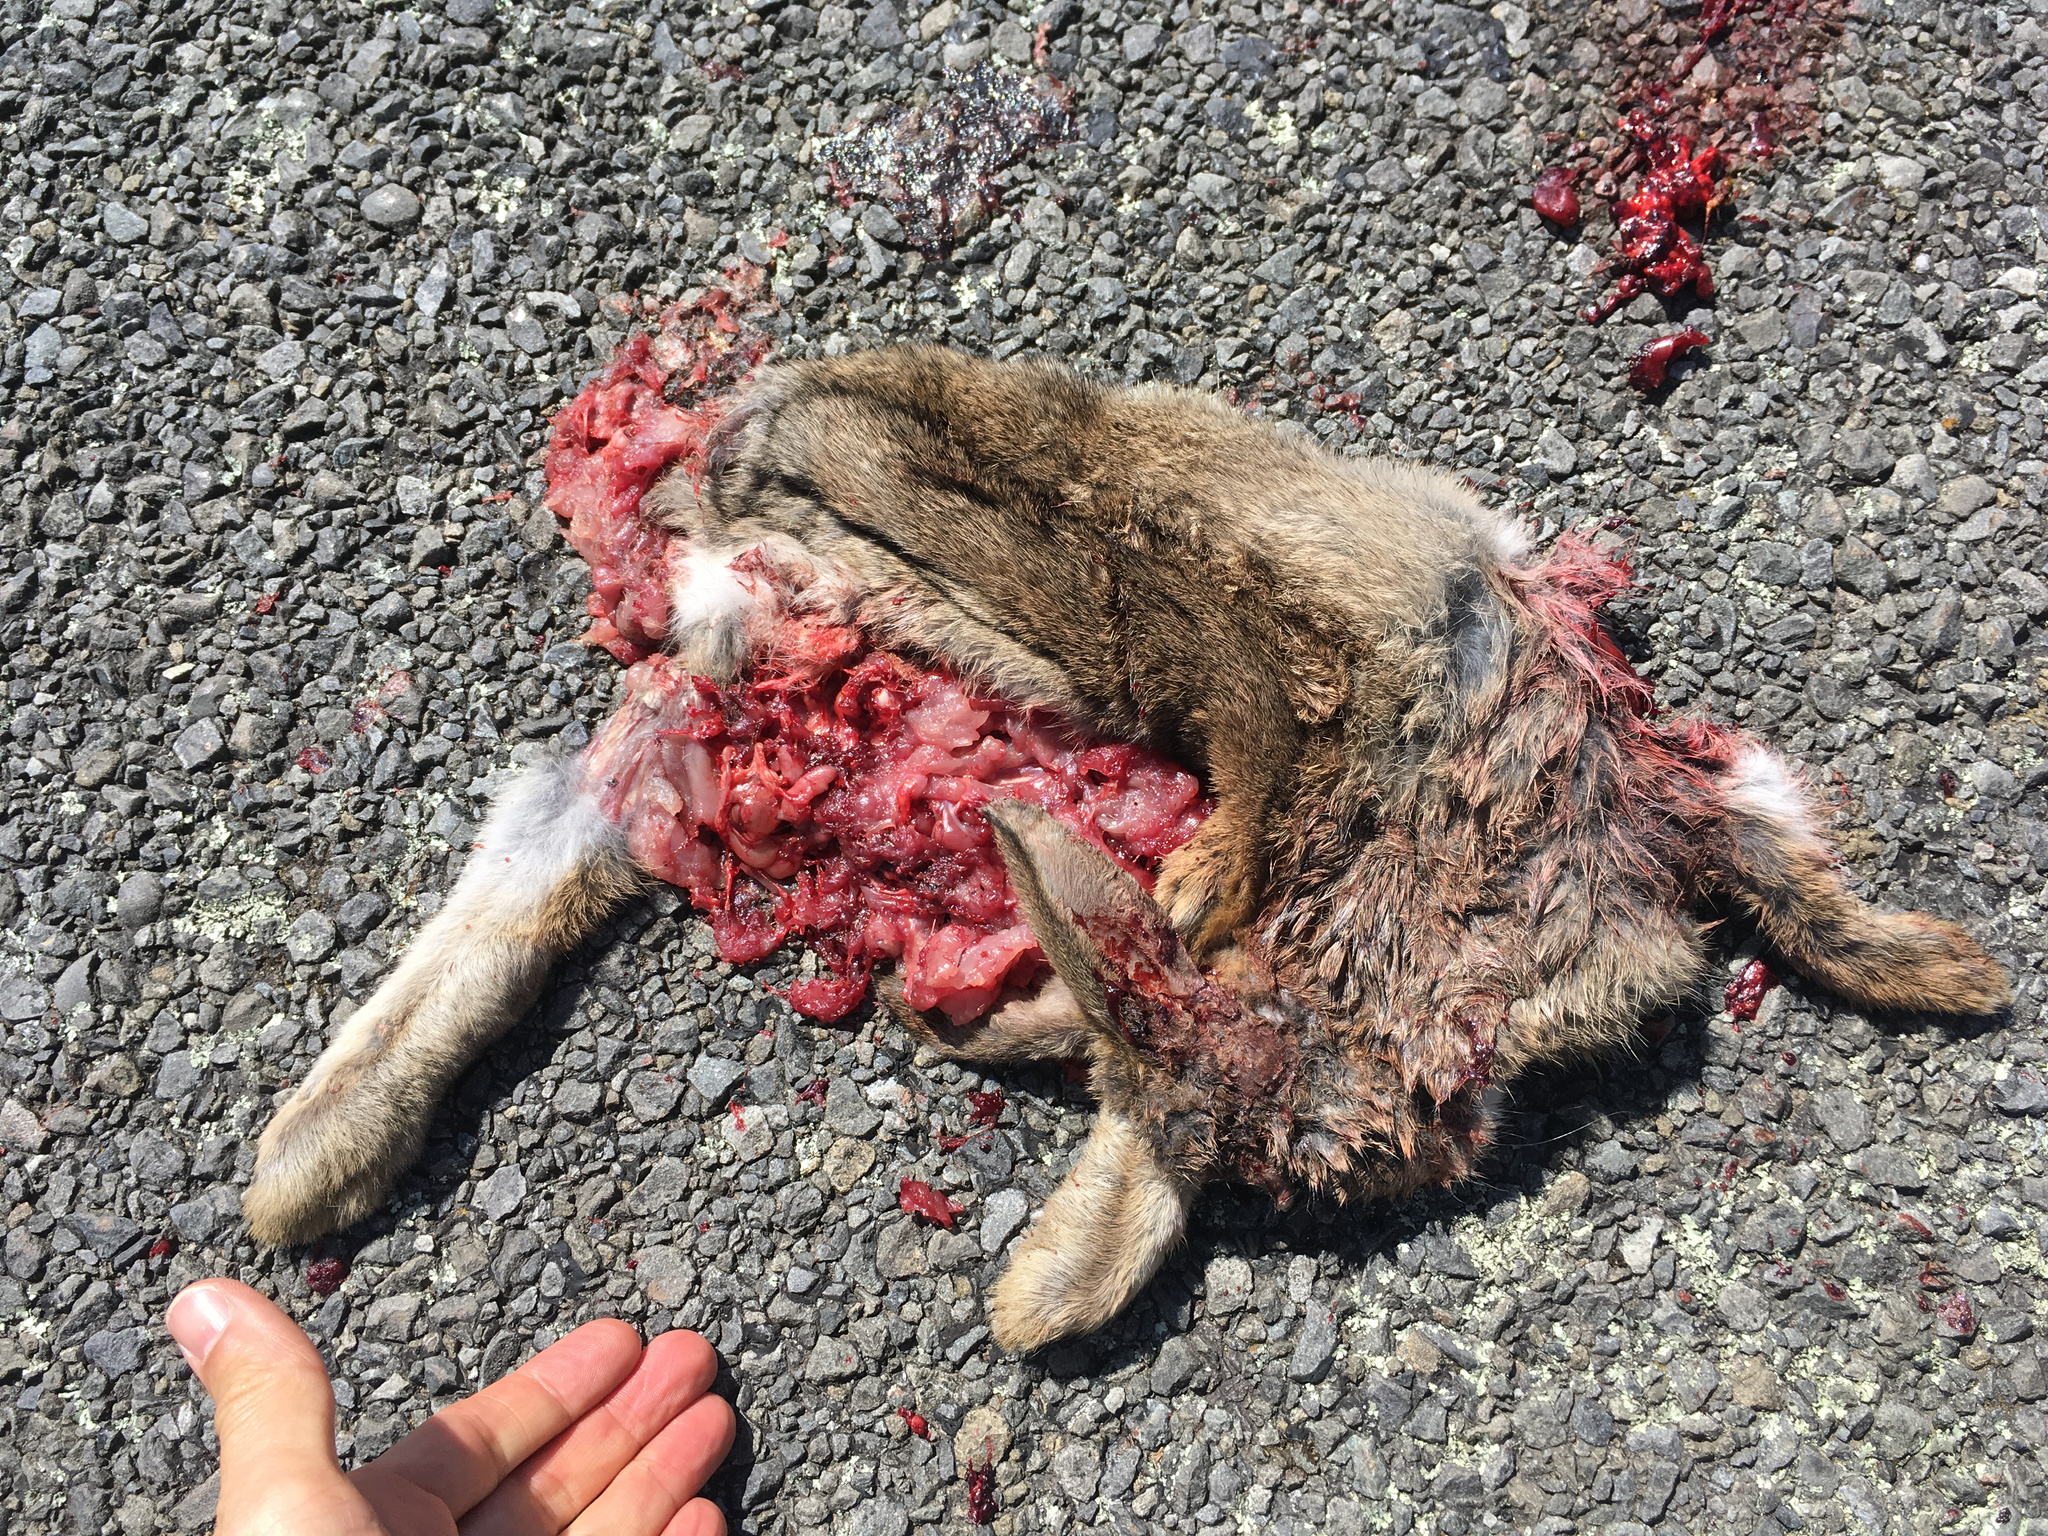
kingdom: Animalia
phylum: Chordata
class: Mammalia
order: Lagomorpha
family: Leporidae
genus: Lepus
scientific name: Lepus europaeus
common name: European hare
